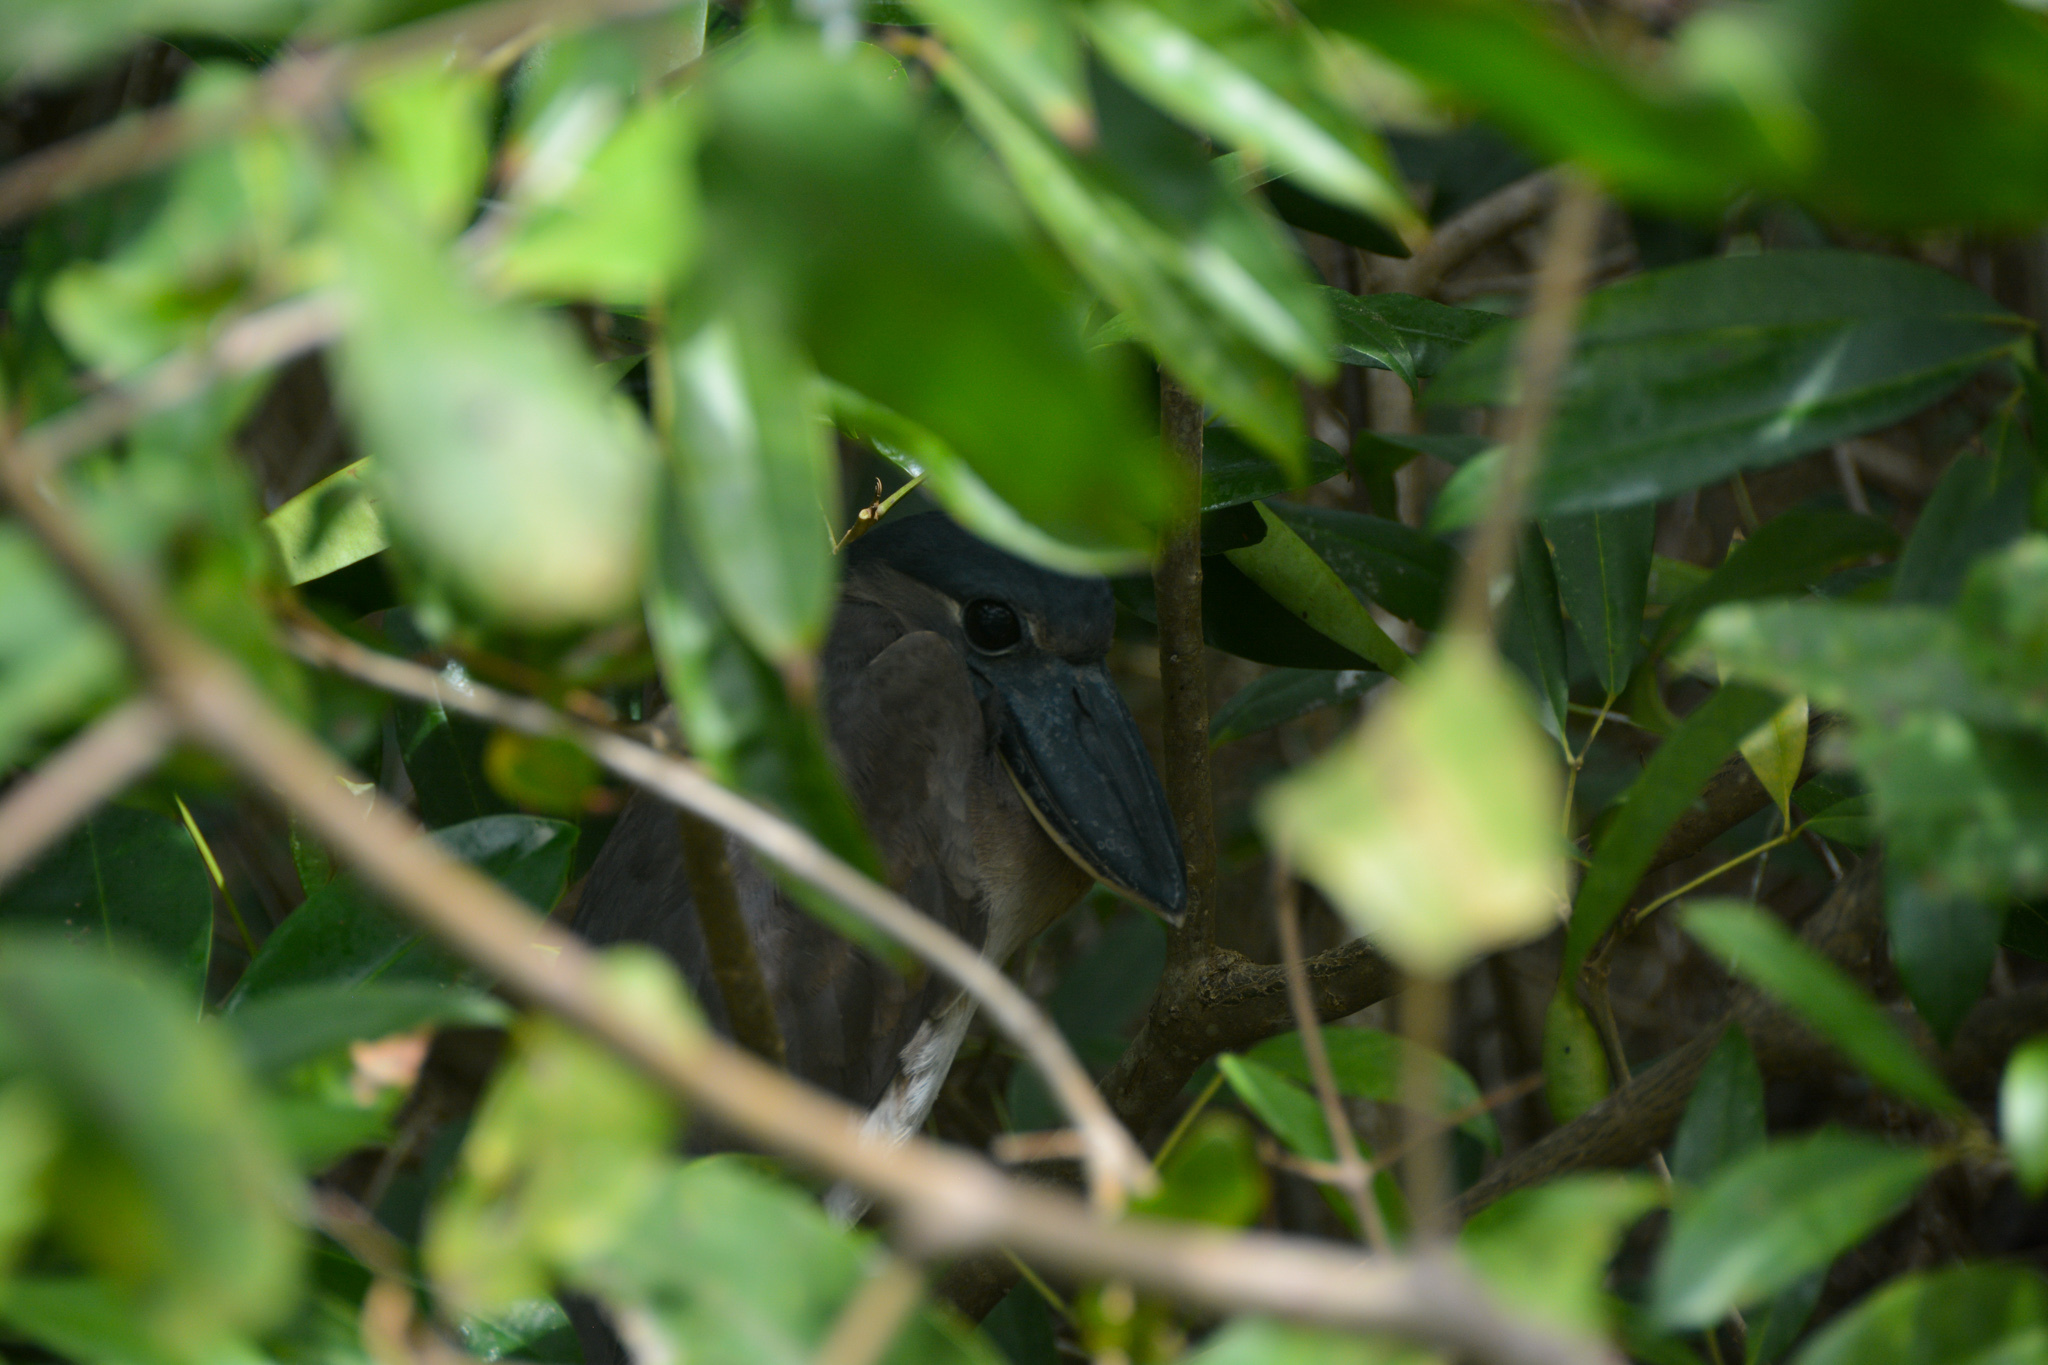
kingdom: Animalia
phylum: Chordata
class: Aves
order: Pelecaniformes
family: Ardeidae
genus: Cochlearius
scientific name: Cochlearius cochlearius
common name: Boat-billed heron
